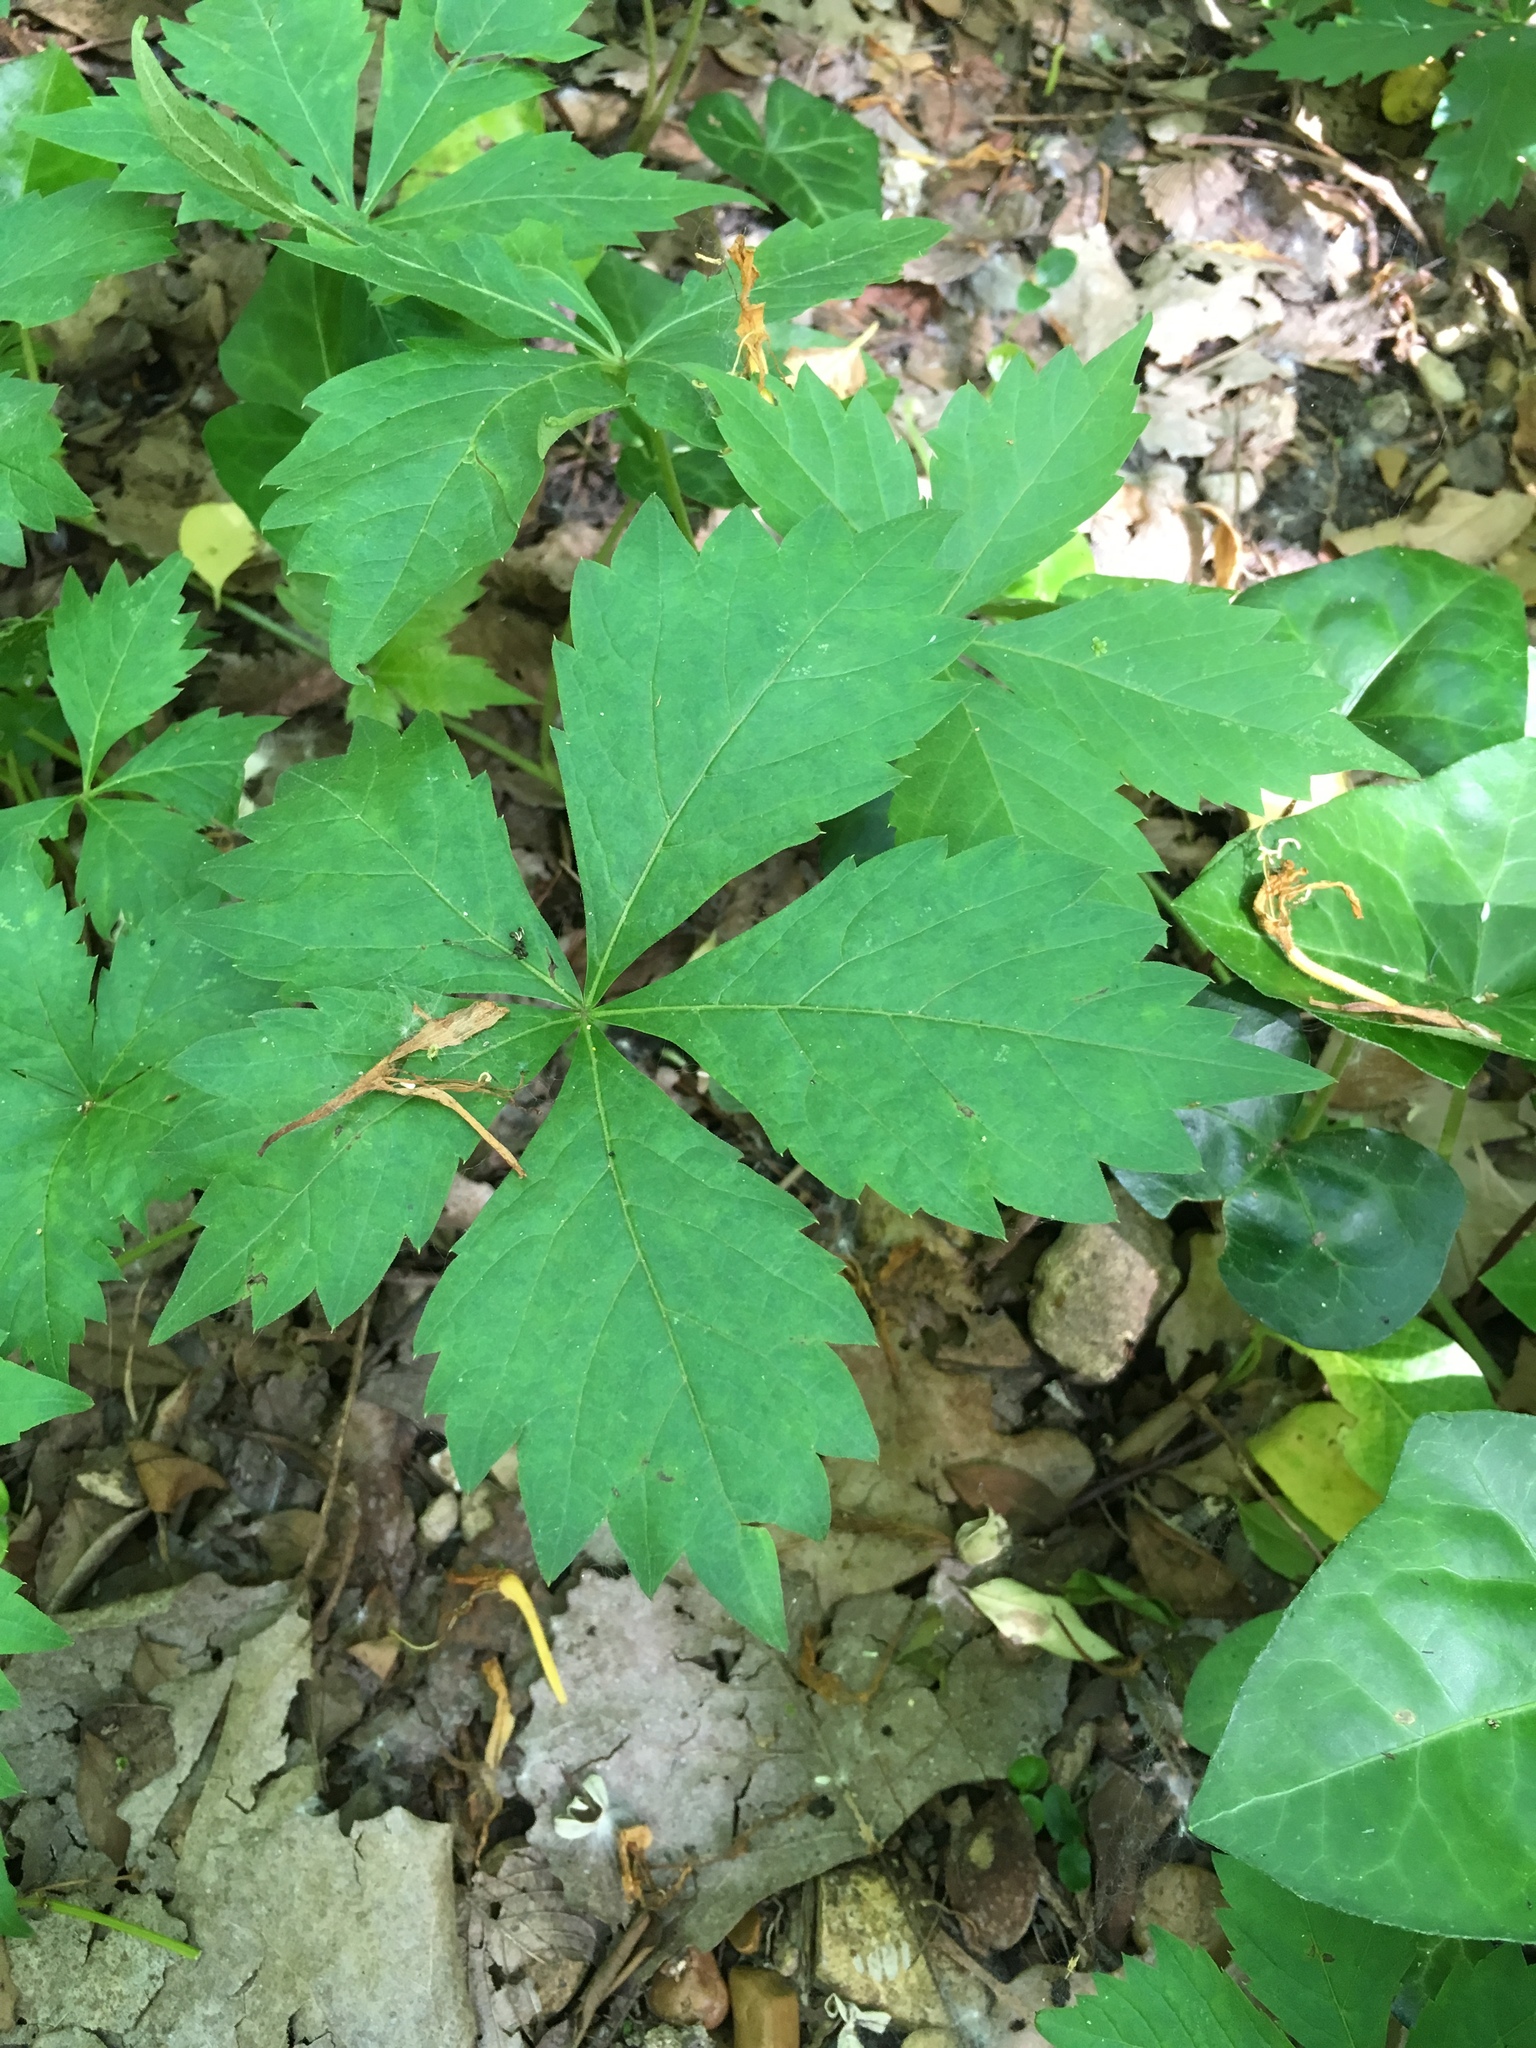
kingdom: Plantae
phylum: Tracheophyta
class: Magnoliopsida
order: Vitales
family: Vitaceae
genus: Parthenocissus
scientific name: Parthenocissus quinquefolia
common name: Virginia-creeper
